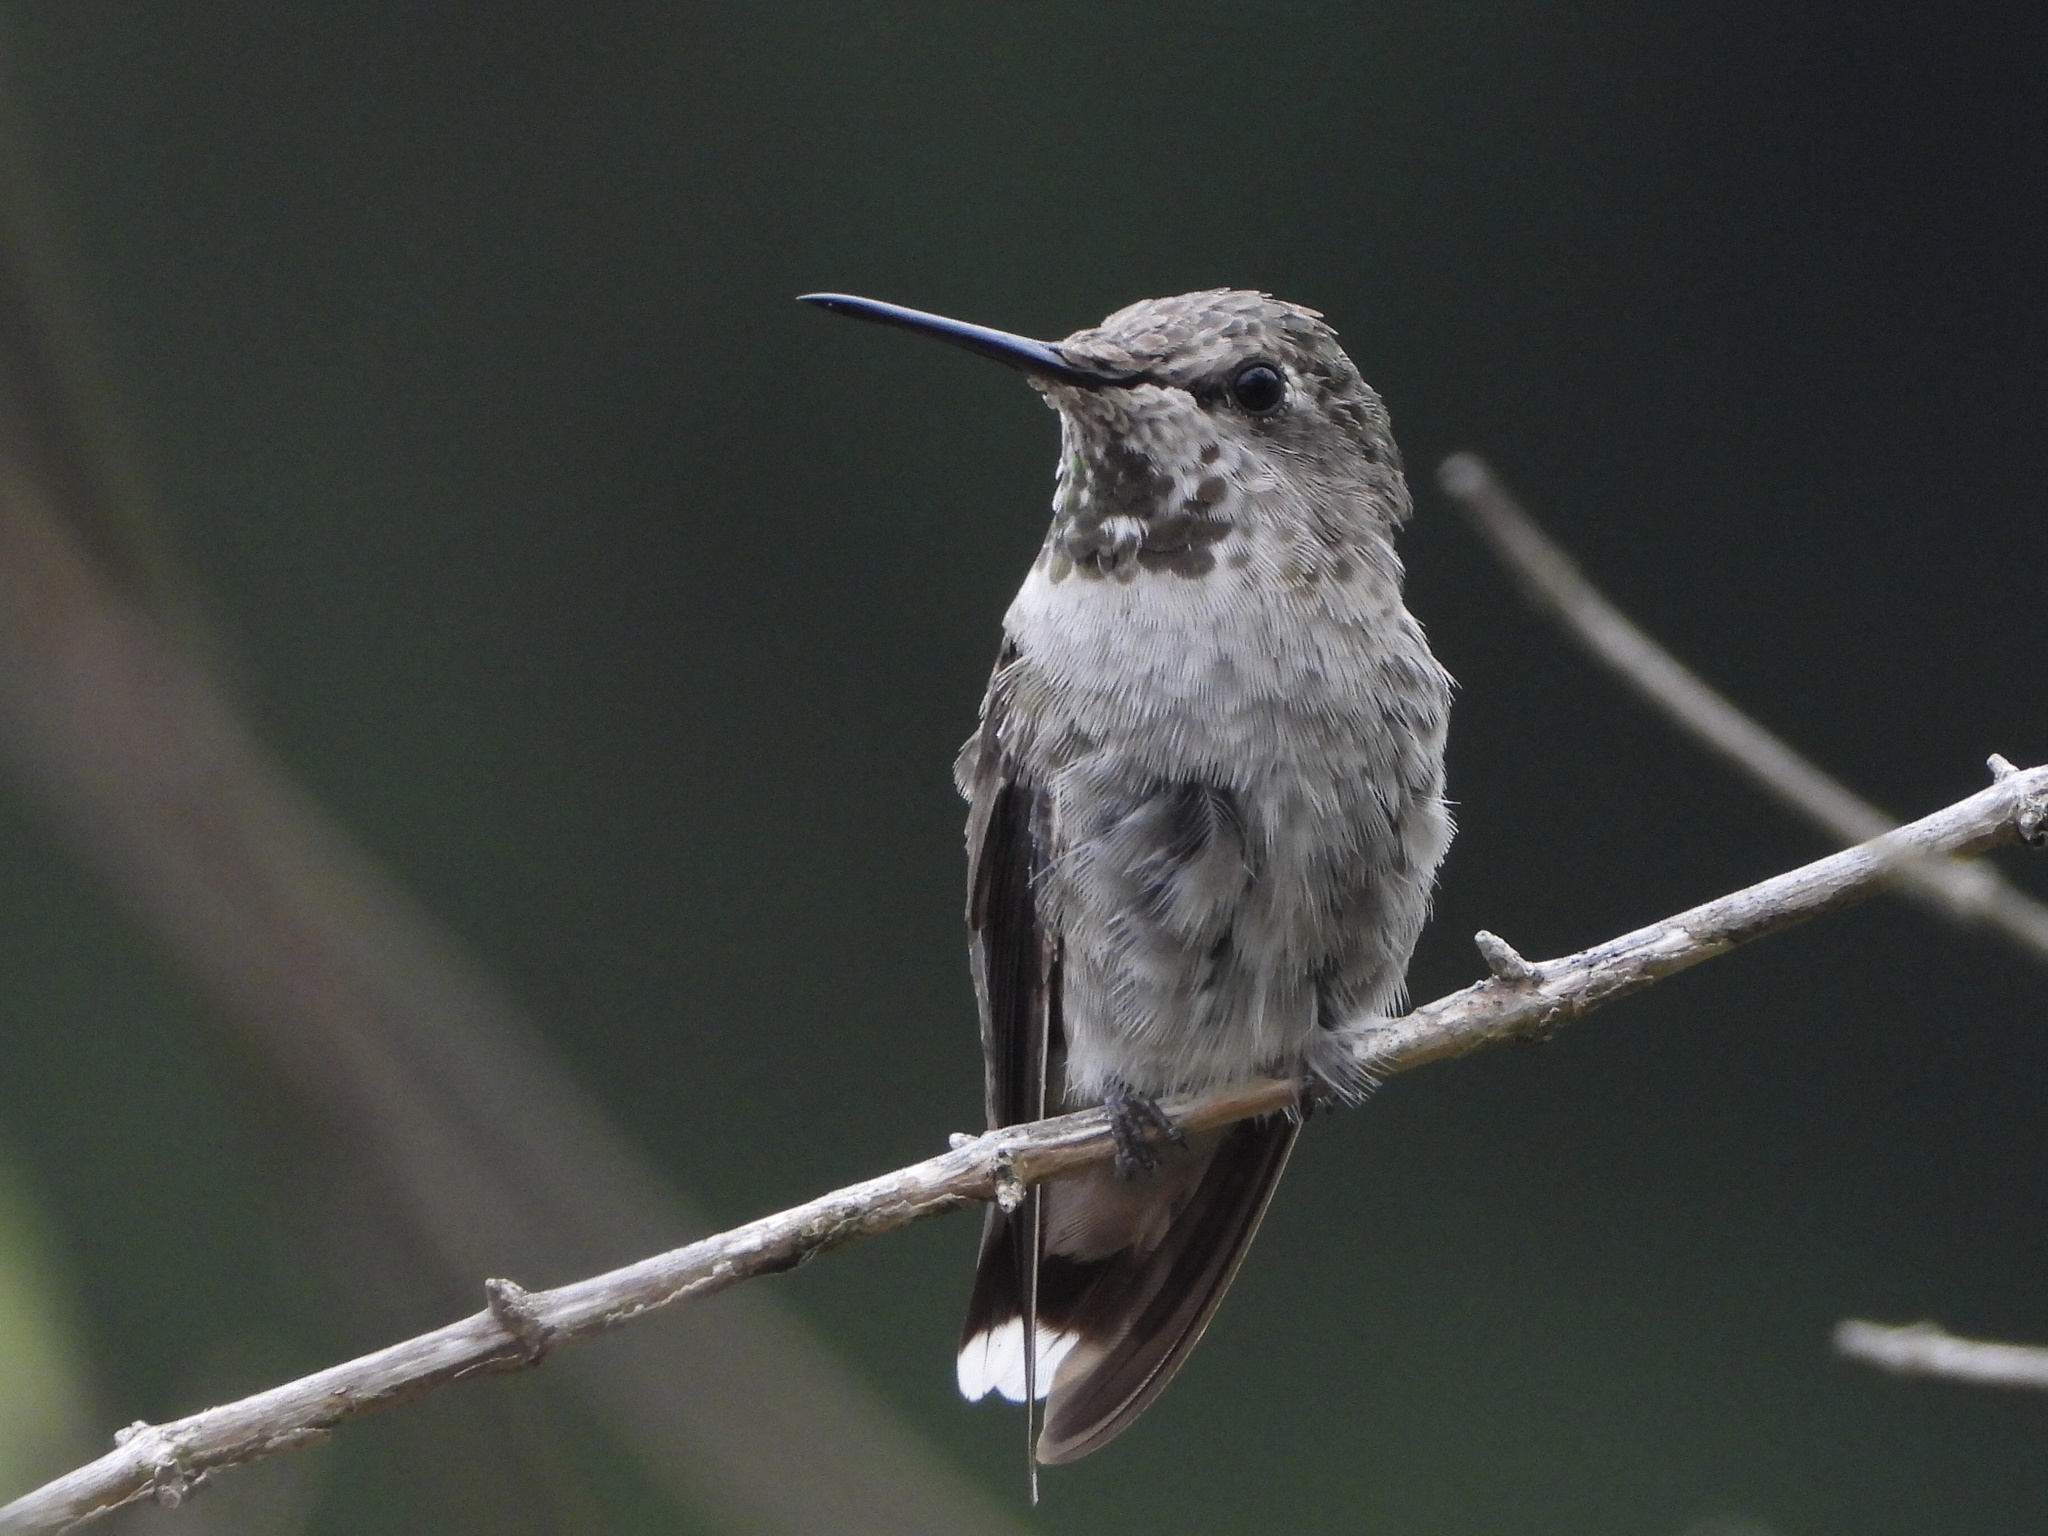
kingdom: Animalia
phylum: Chordata
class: Aves
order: Apodiformes
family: Trochilidae
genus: Calypte
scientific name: Calypte anna
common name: Anna's hummingbird
